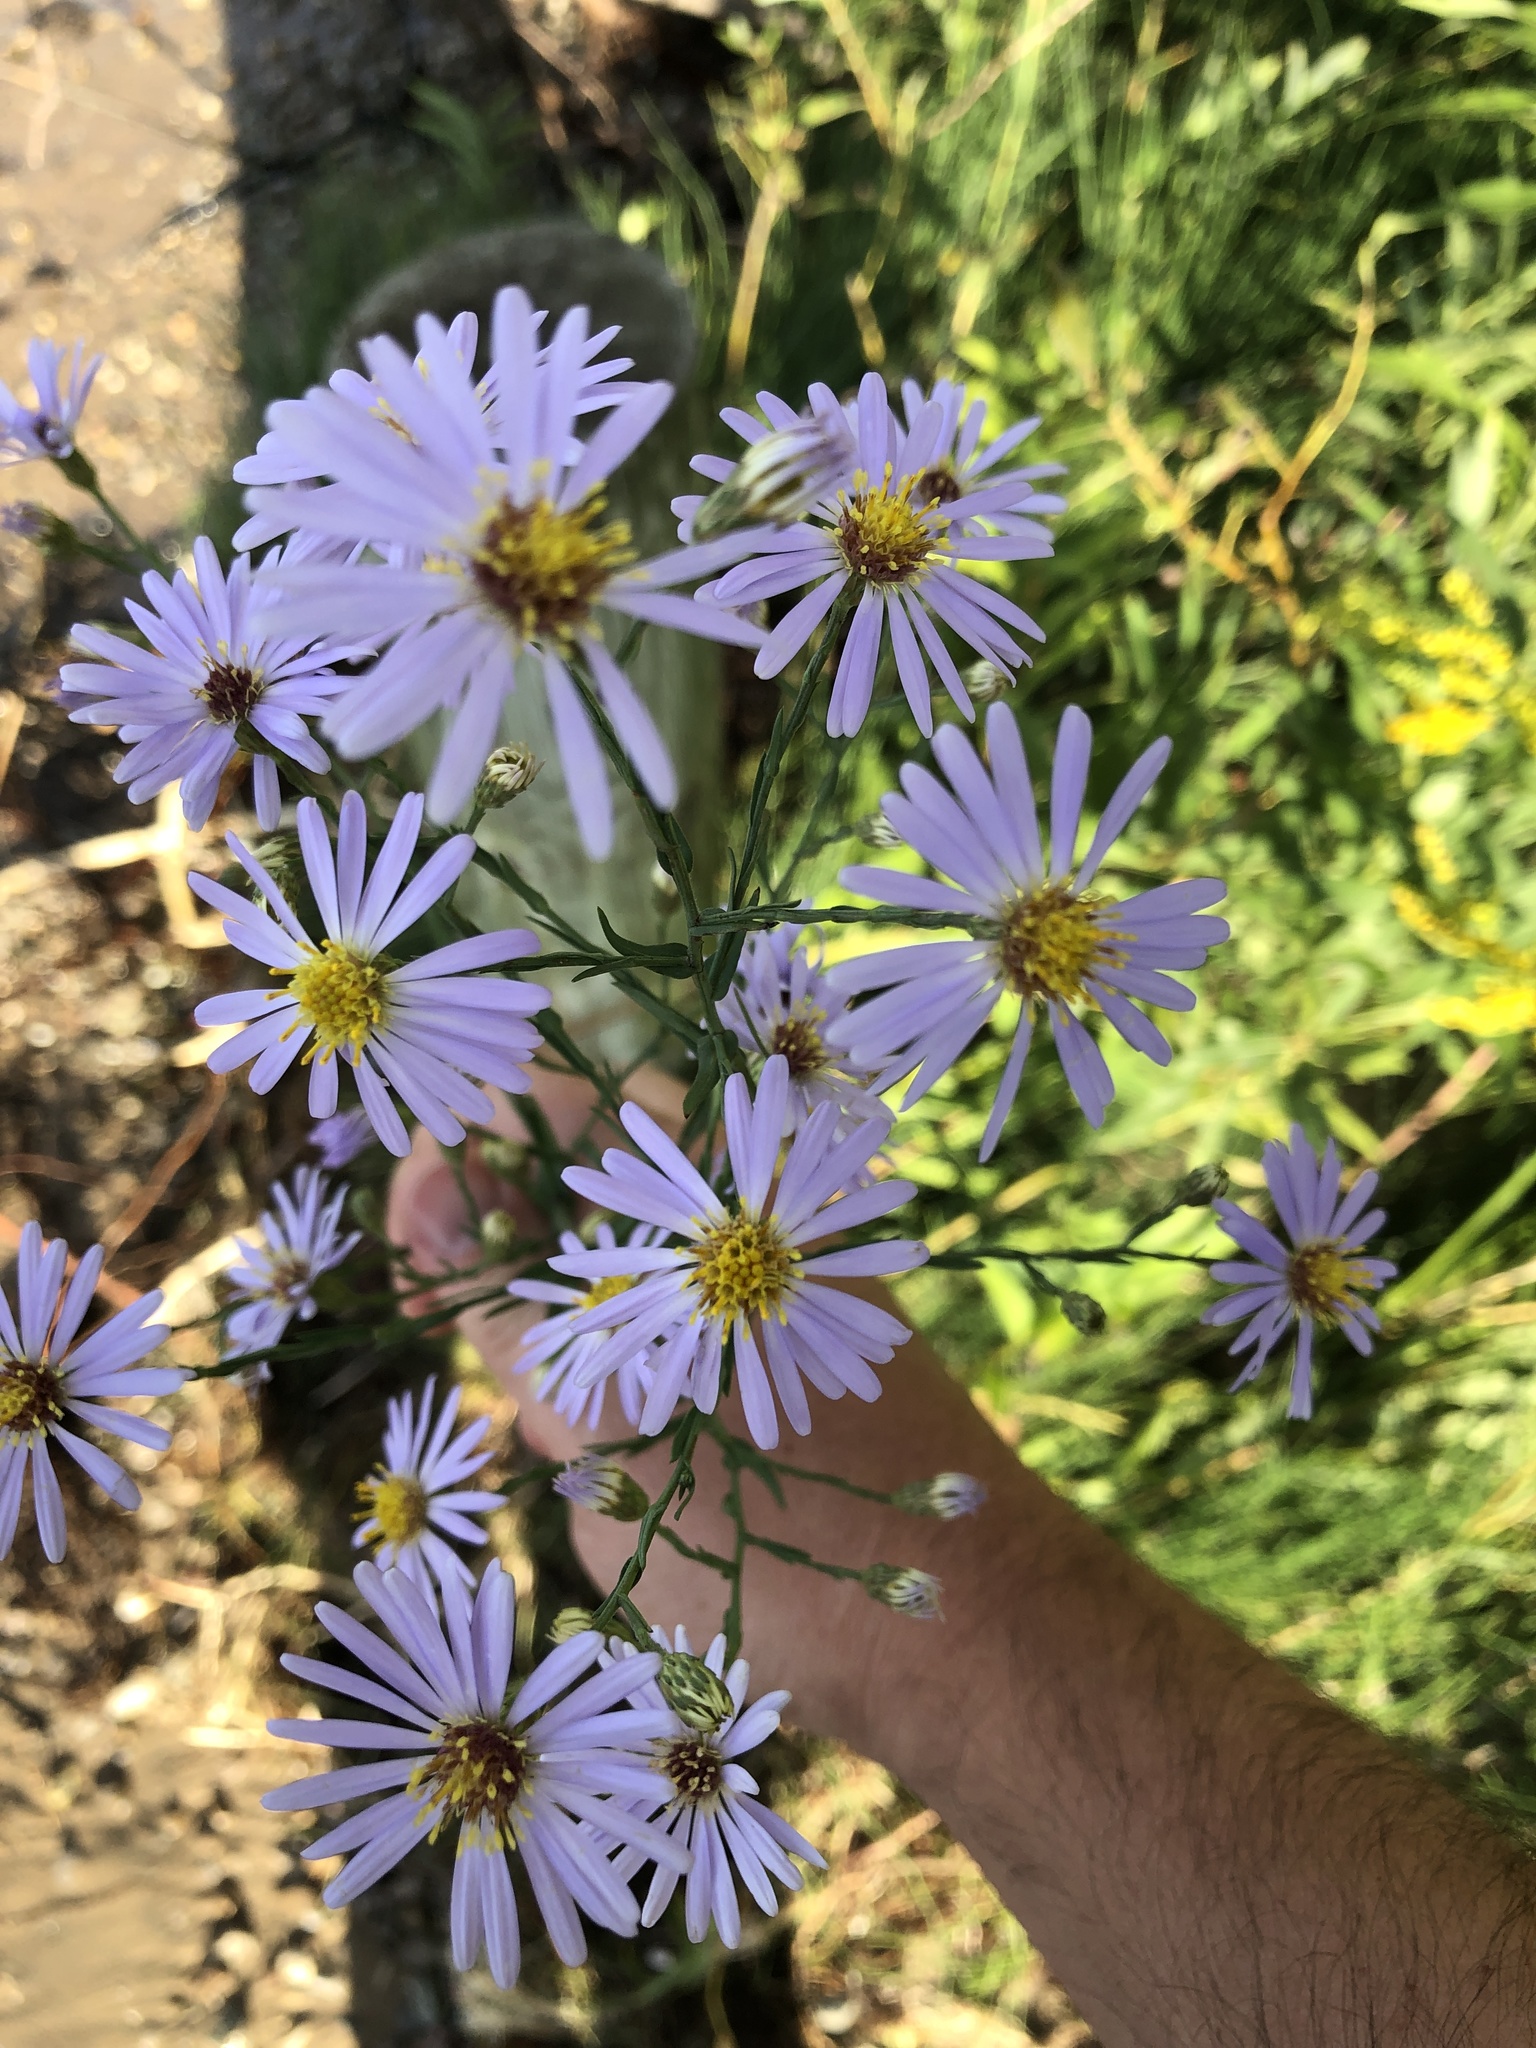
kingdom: Plantae
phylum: Tracheophyta
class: Magnoliopsida
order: Asterales
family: Asteraceae
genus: Symphyotrichum
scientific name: Symphyotrichum laeve
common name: Glaucous aster
